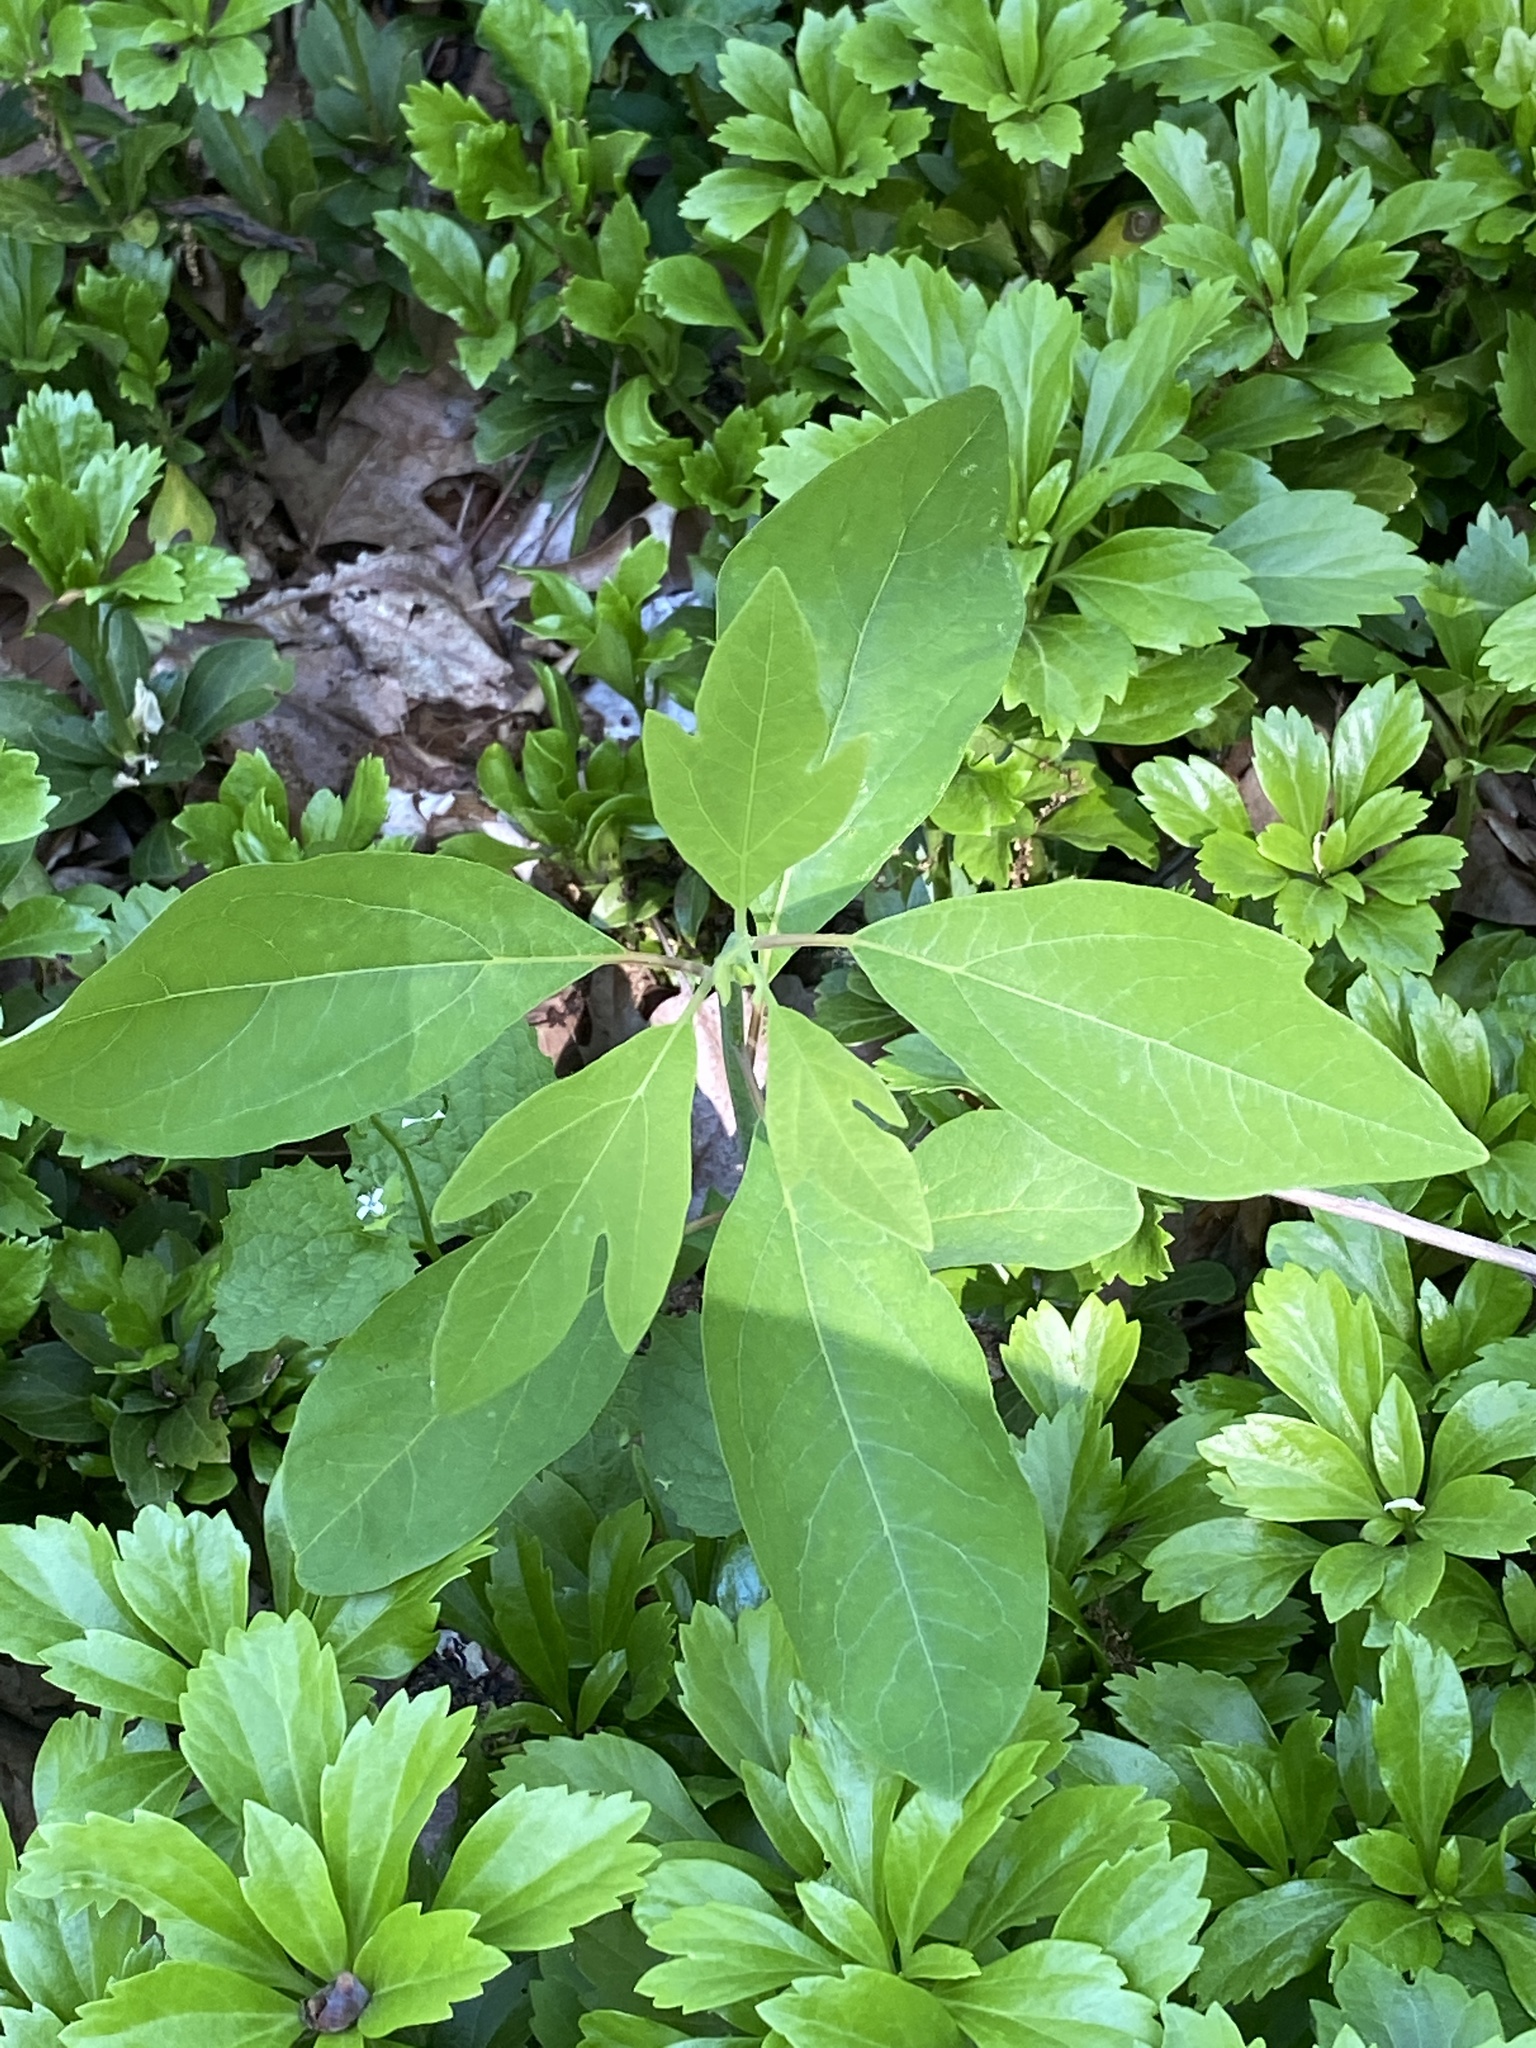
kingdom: Plantae
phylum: Tracheophyta
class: Magnoliopsida
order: Laurales
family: Lauraceae
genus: Sassafras
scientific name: Sassafras albidum
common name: Sassafras
